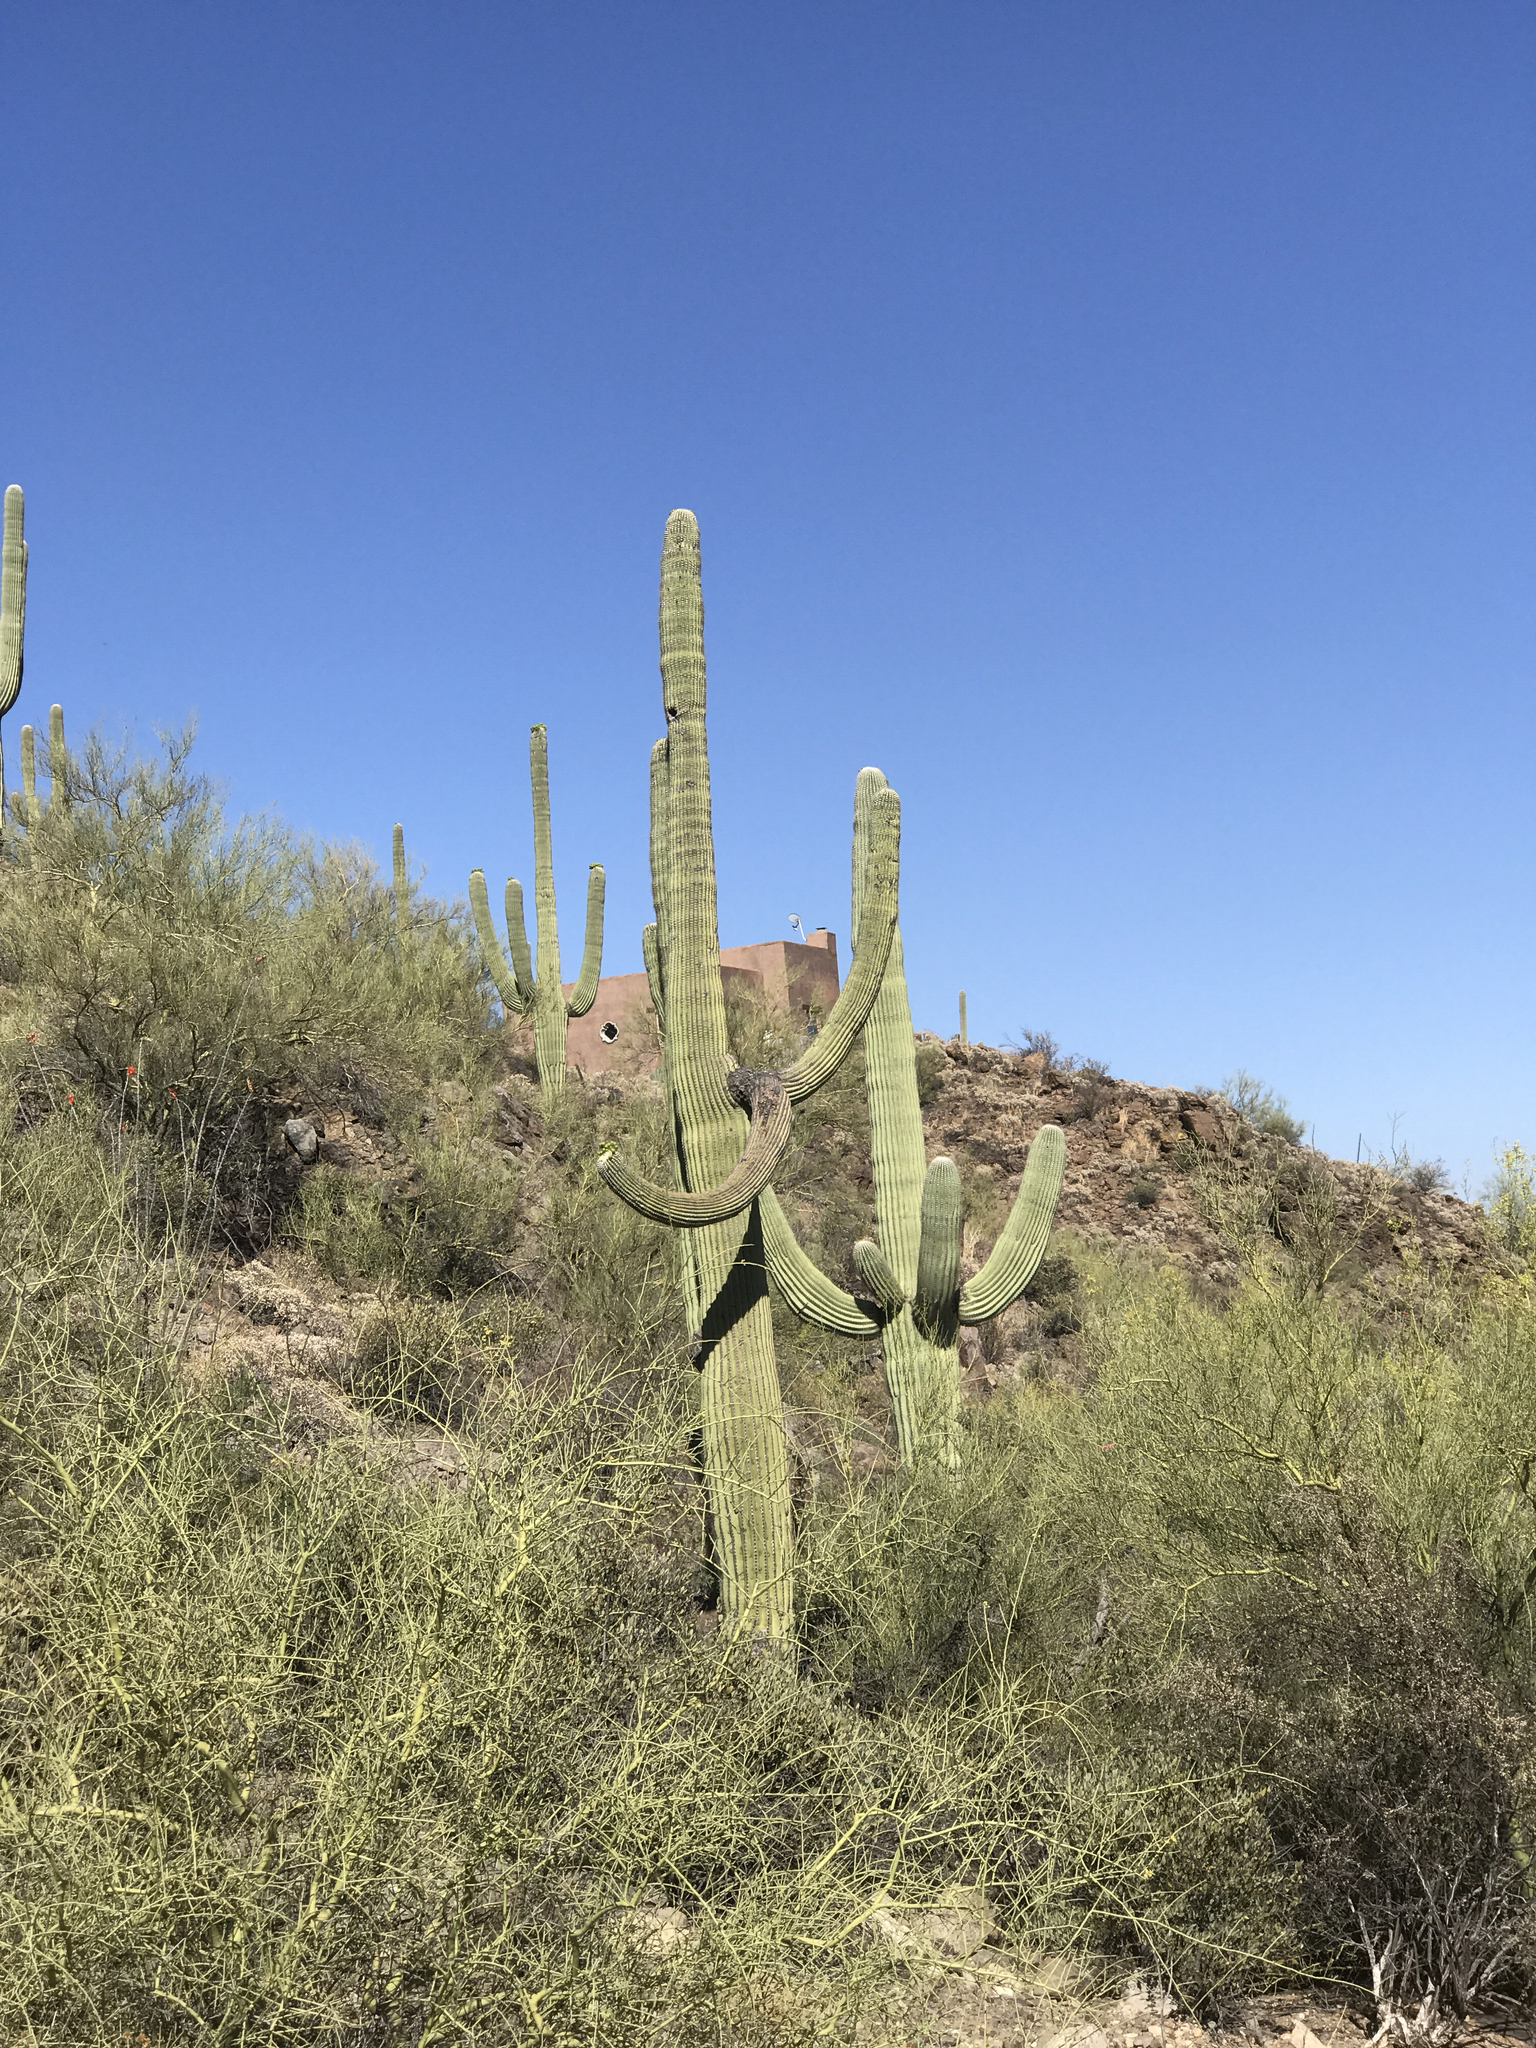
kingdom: Plantae
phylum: Tracheophyta
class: Magnoliopsida
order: Caryophyllales
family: Cactaceae
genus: Carnegiea
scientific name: Carnegiea gigantea
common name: Saguaro
